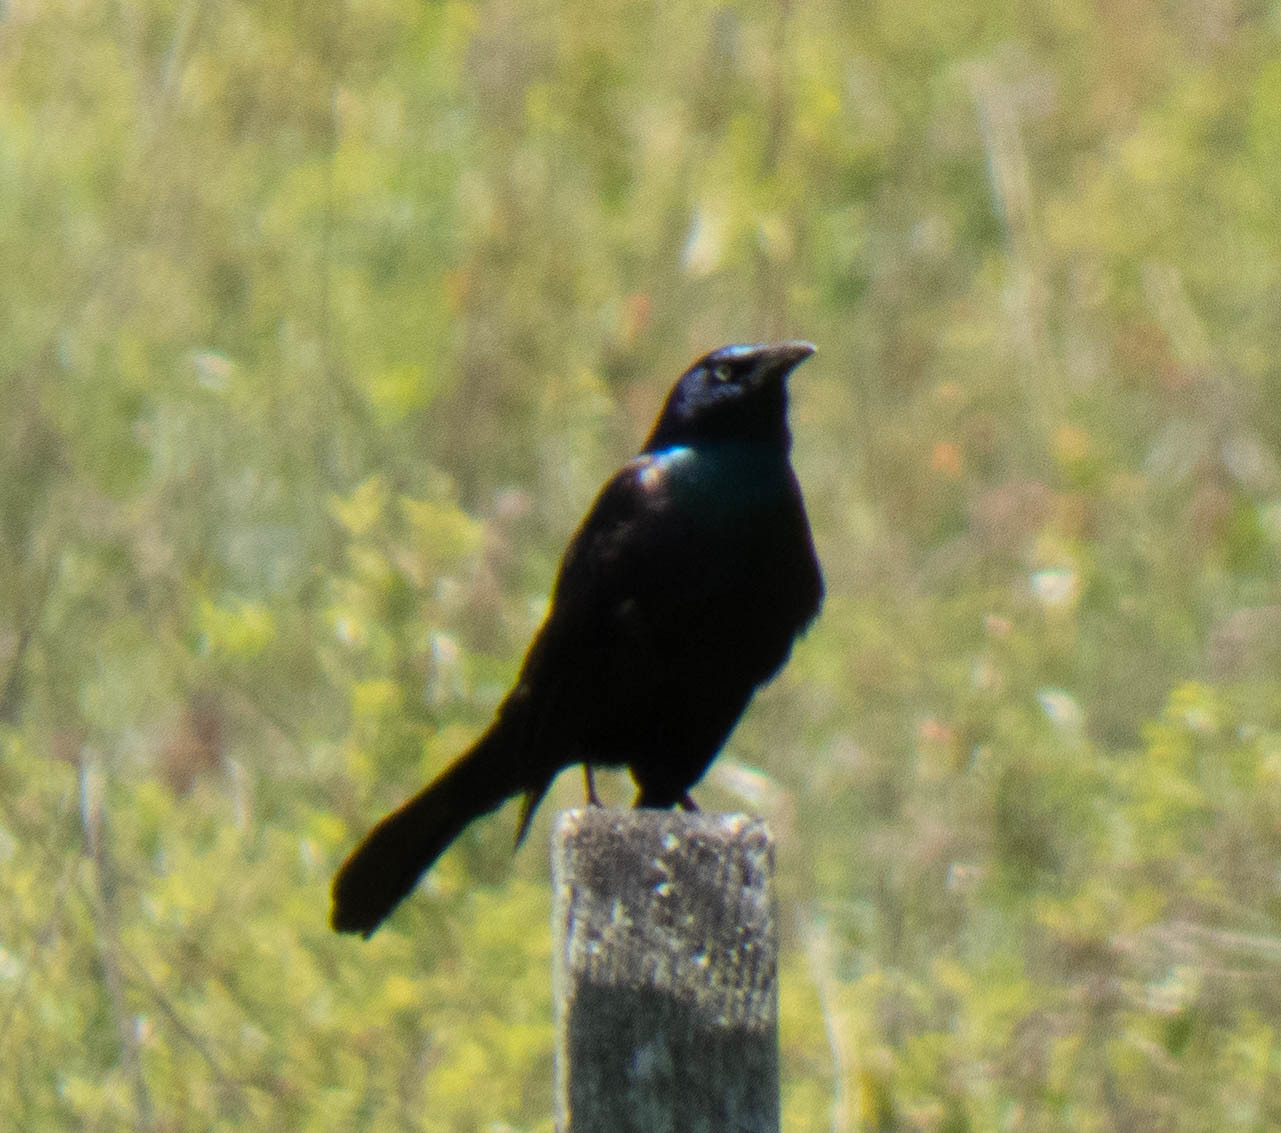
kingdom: Animalia
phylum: Chordata
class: Aves
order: Passeriformes
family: Icteridae
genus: Quiscalus
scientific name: Quiscalus quiscula
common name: Common grackle
